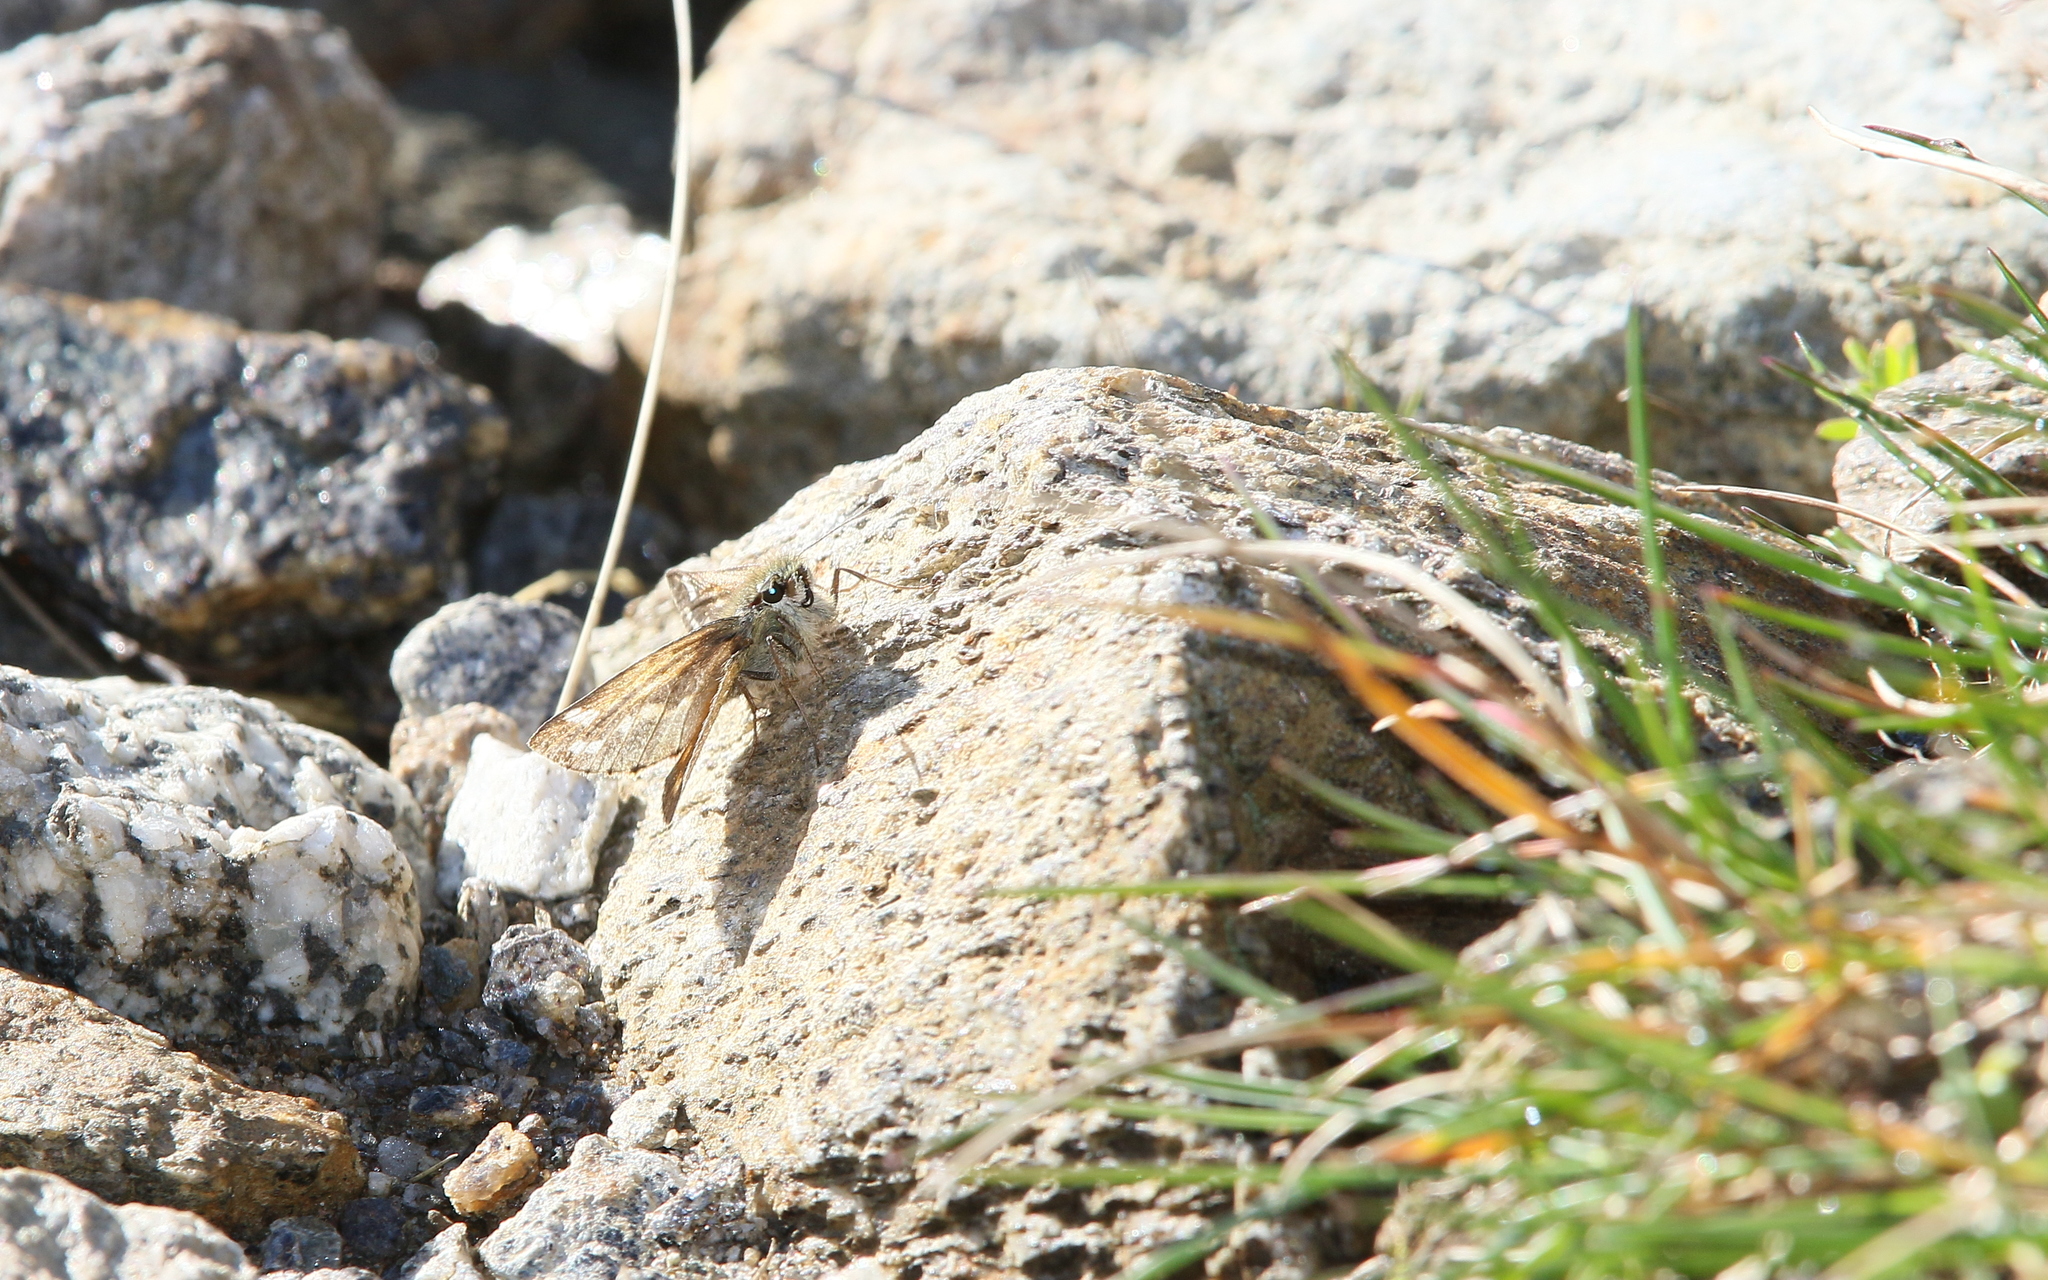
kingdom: Animalia
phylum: Arthropoda
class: Insecta
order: Lepidoptera
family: Hesperiidae
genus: Hesperia
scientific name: Hesperia comma
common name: Common branded skipper
